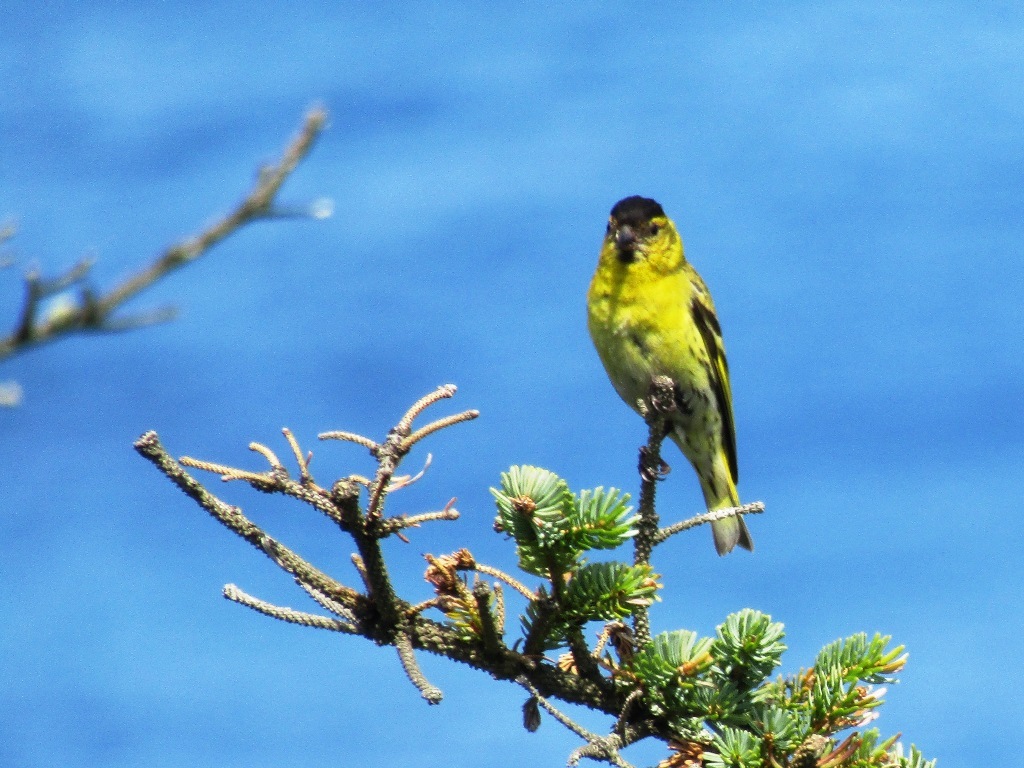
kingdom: Animalia
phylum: Chordata
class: Aves
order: Passeriformes
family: Fringillidae
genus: Spinus
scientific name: Spinus spinus
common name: Eurasian siskin
